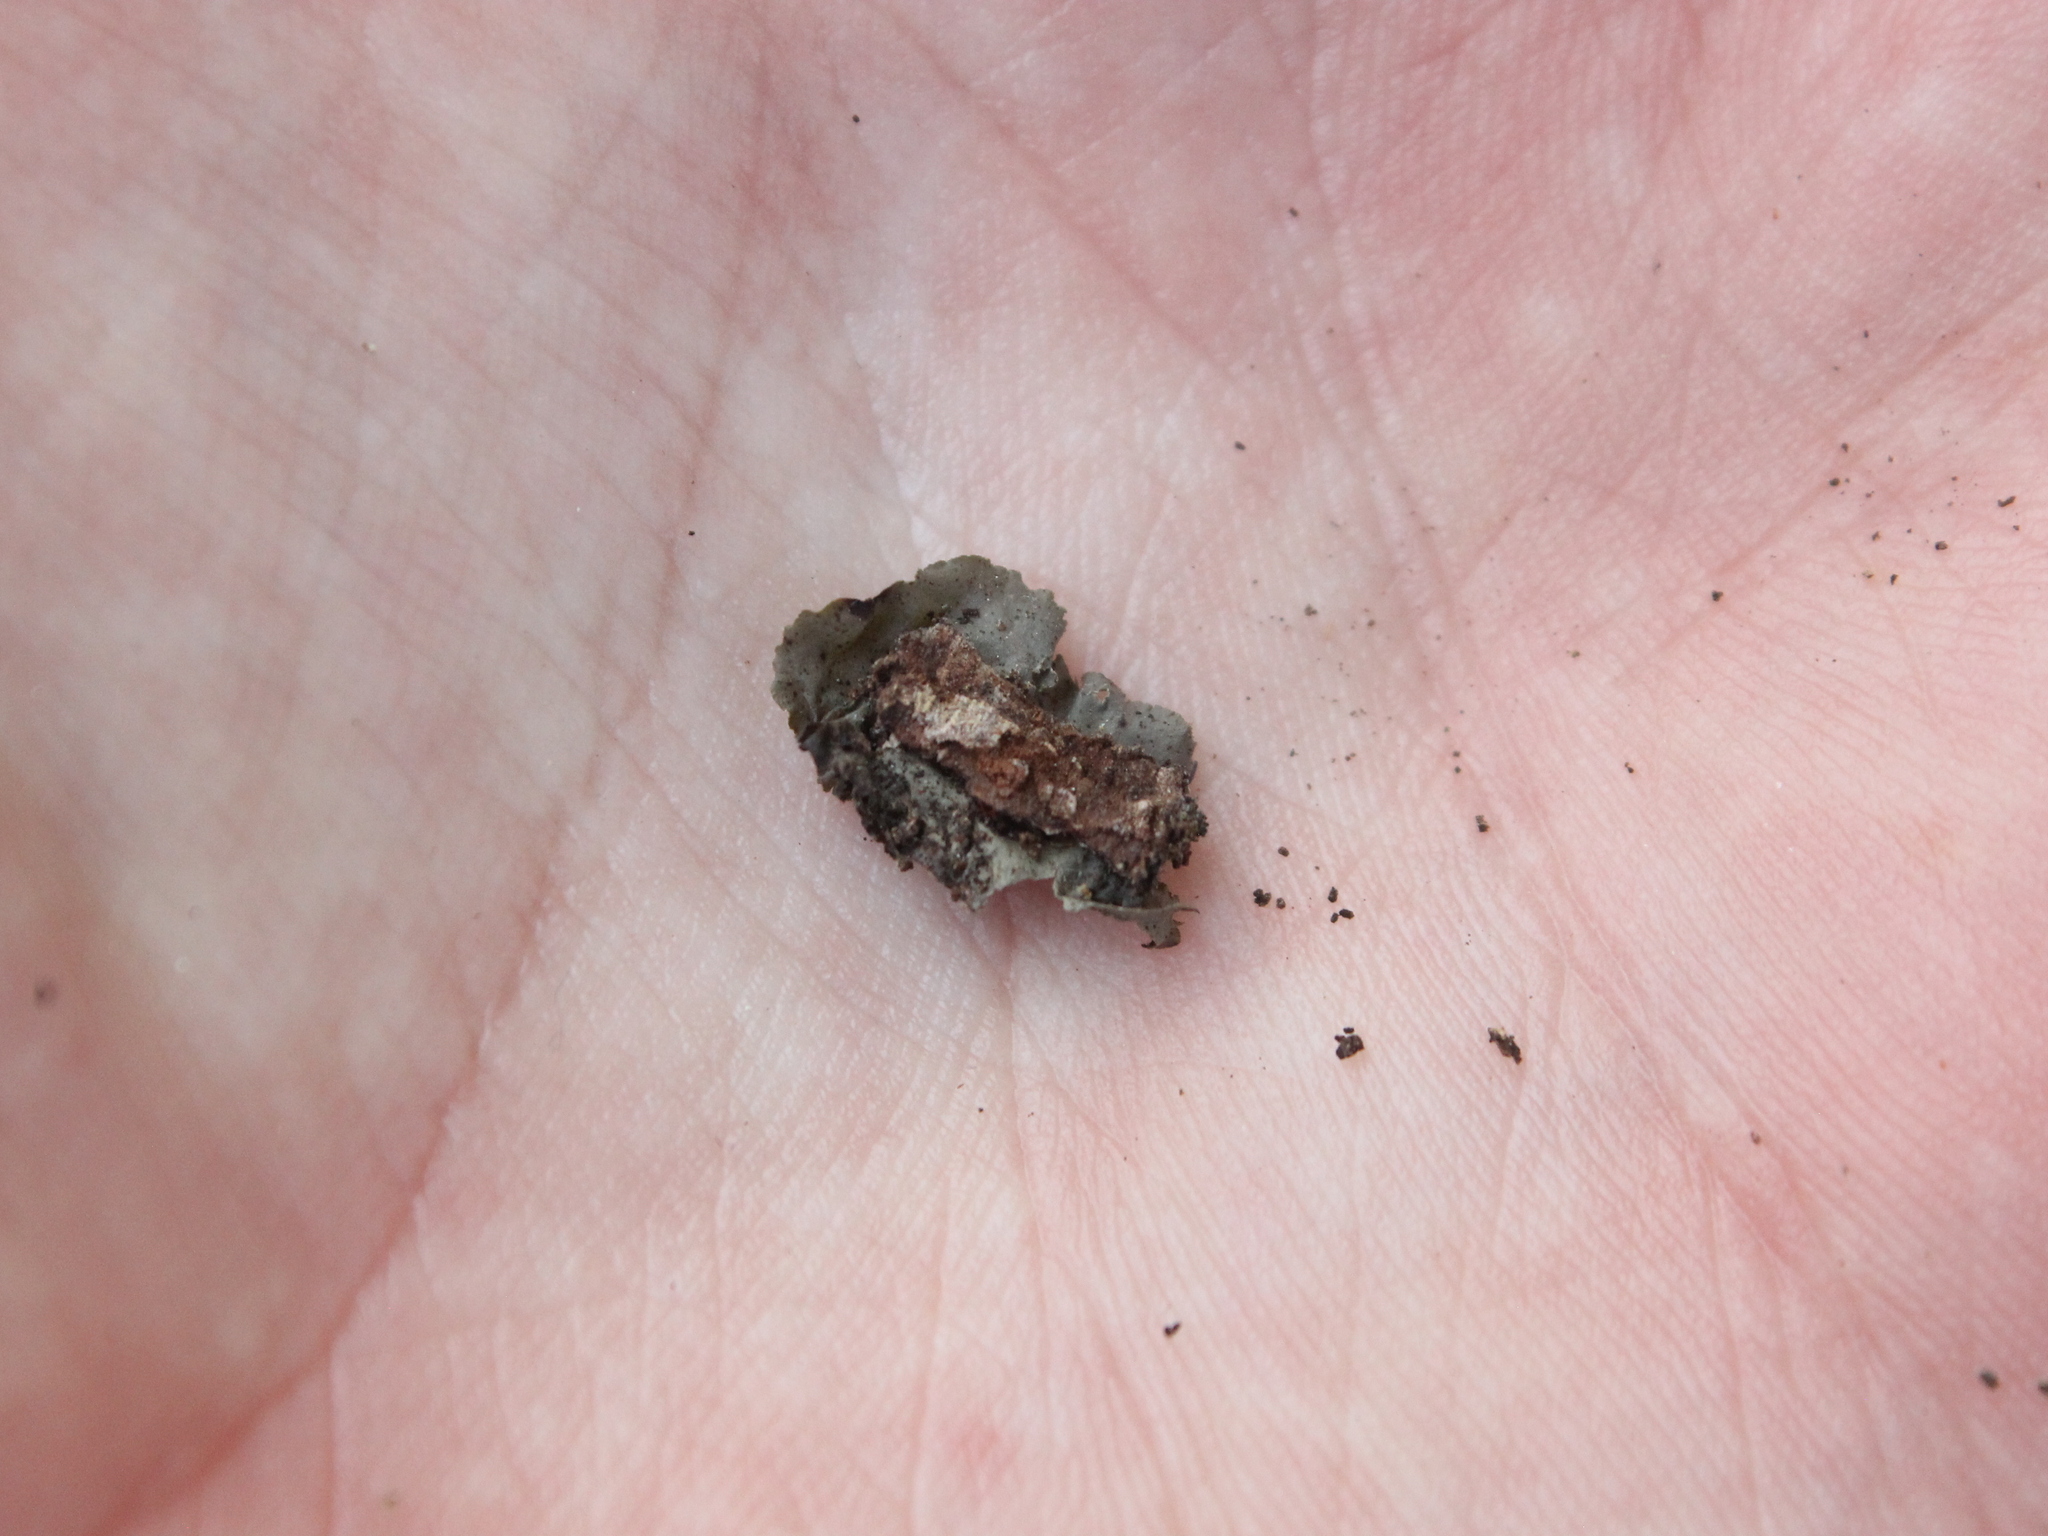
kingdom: Fungi
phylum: Ascomycota
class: Lecanoromycetes
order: Peltigerales
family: Collemataceae
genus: Leptogium
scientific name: Leptogium oceanianum
